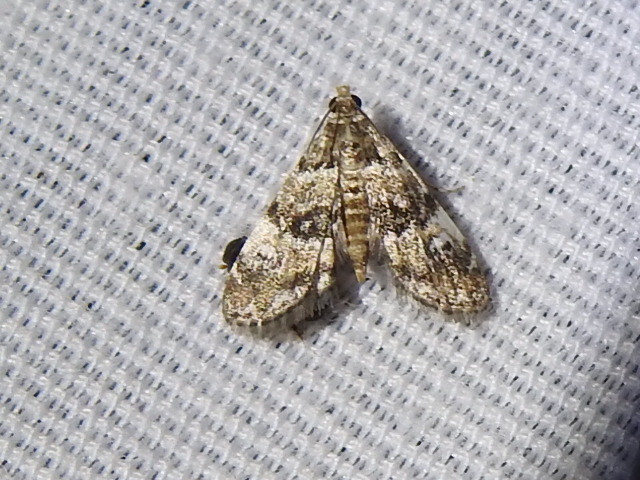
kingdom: Animalia
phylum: Arthropoda
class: Insecta
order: Lepidoptera
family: Crambidae
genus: Elophila
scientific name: Elophila obliteralis
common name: Waterlily leafcutter moth
